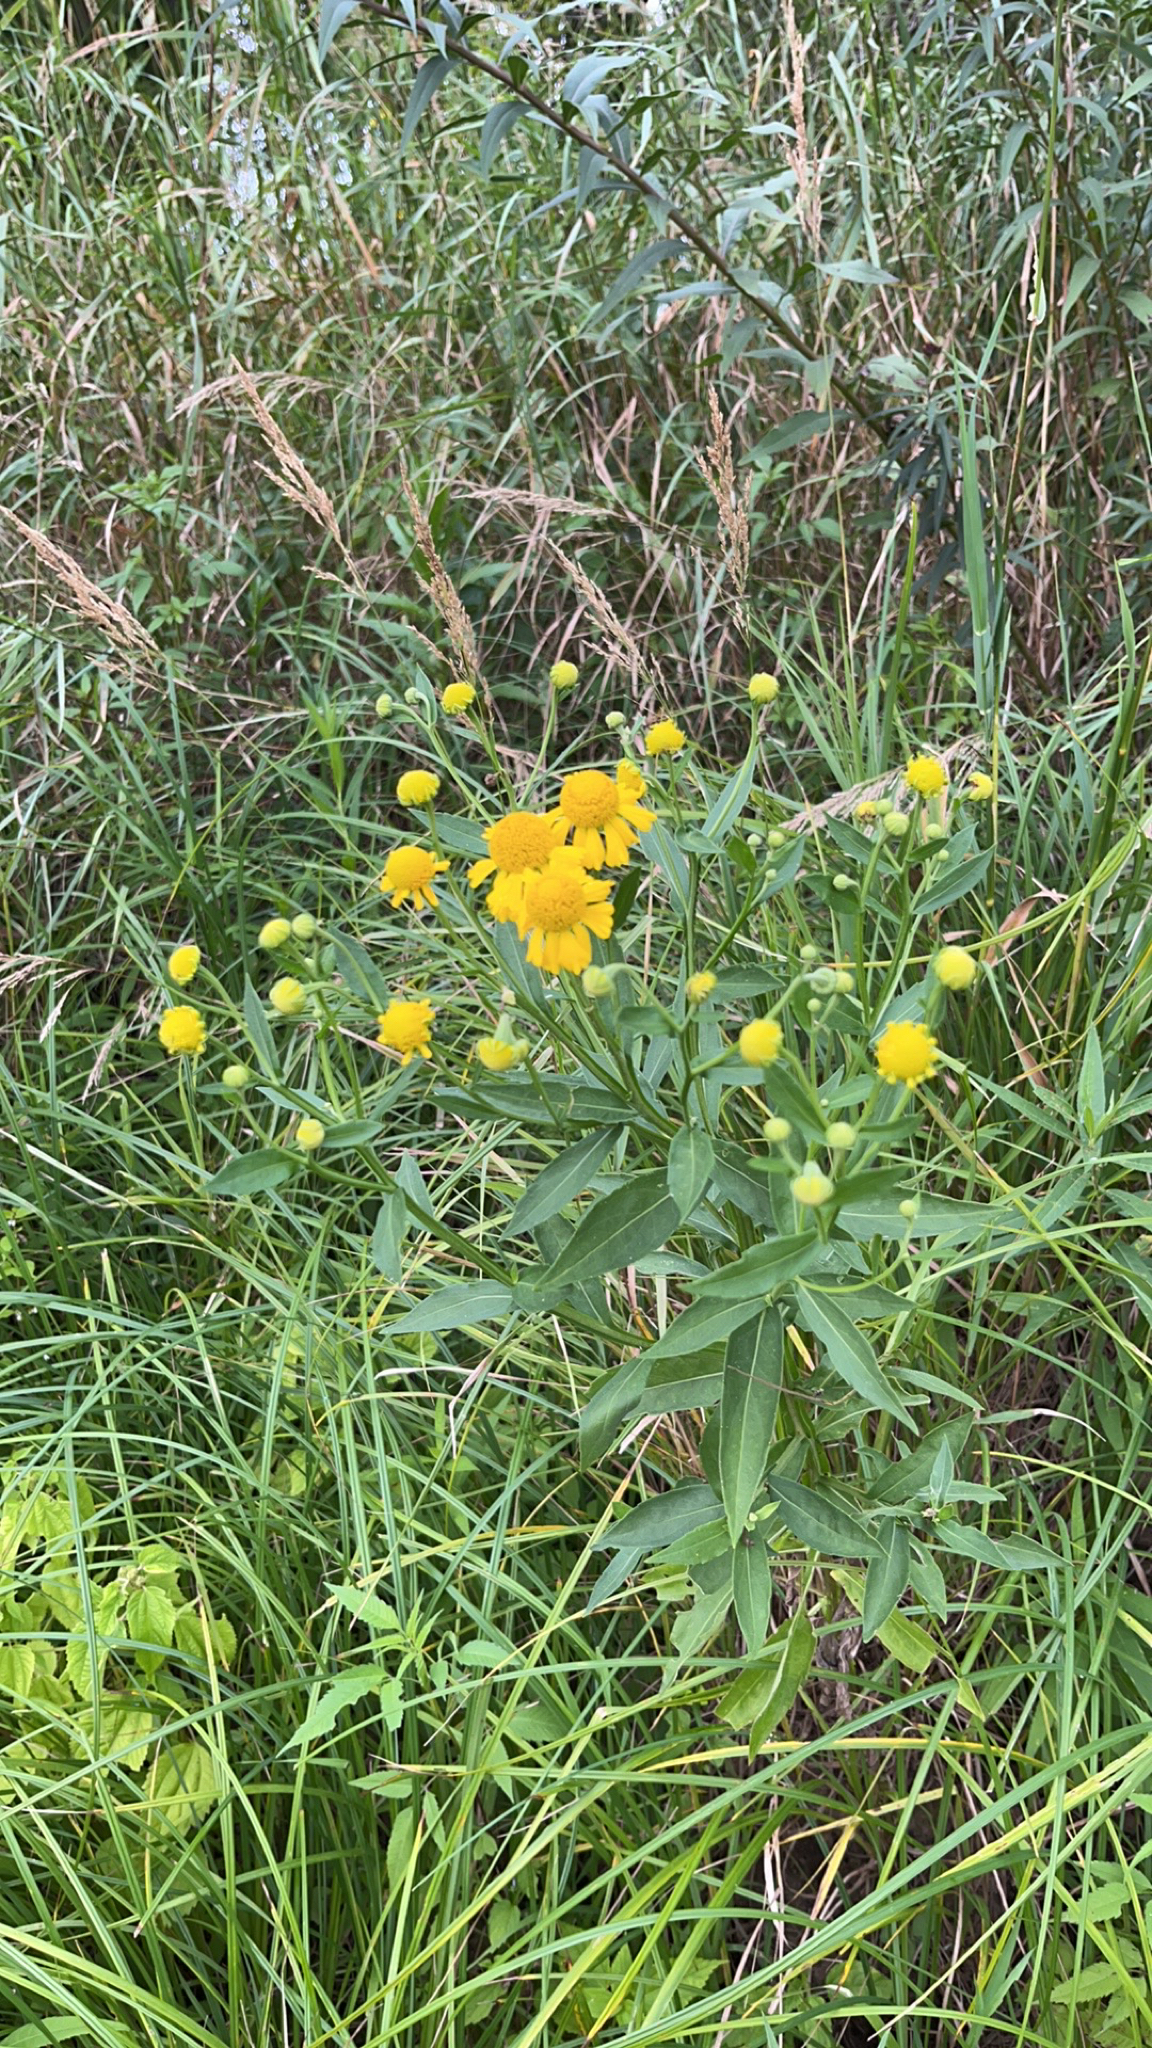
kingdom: Plantae
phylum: Tracheophyta
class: Magnoliopsida
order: Asterales
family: Asteraceae
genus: Helenium
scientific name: Helenium autumnale
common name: Sneezeweed
